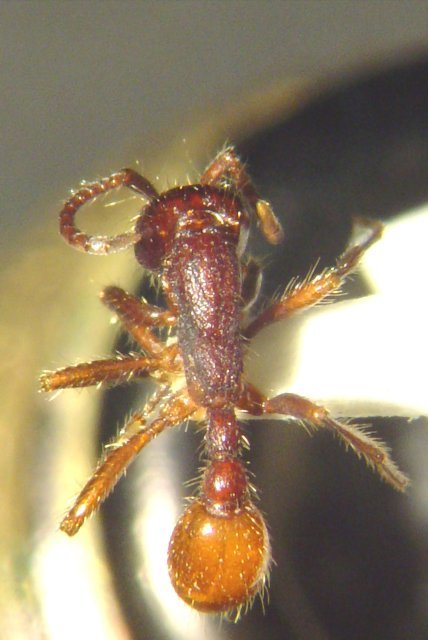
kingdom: Animalia
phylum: Arthropoda
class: Insecta
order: Hymenoptera
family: Formicidae
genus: Neivamyrmex
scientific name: Neivamyrmex rugulosus
